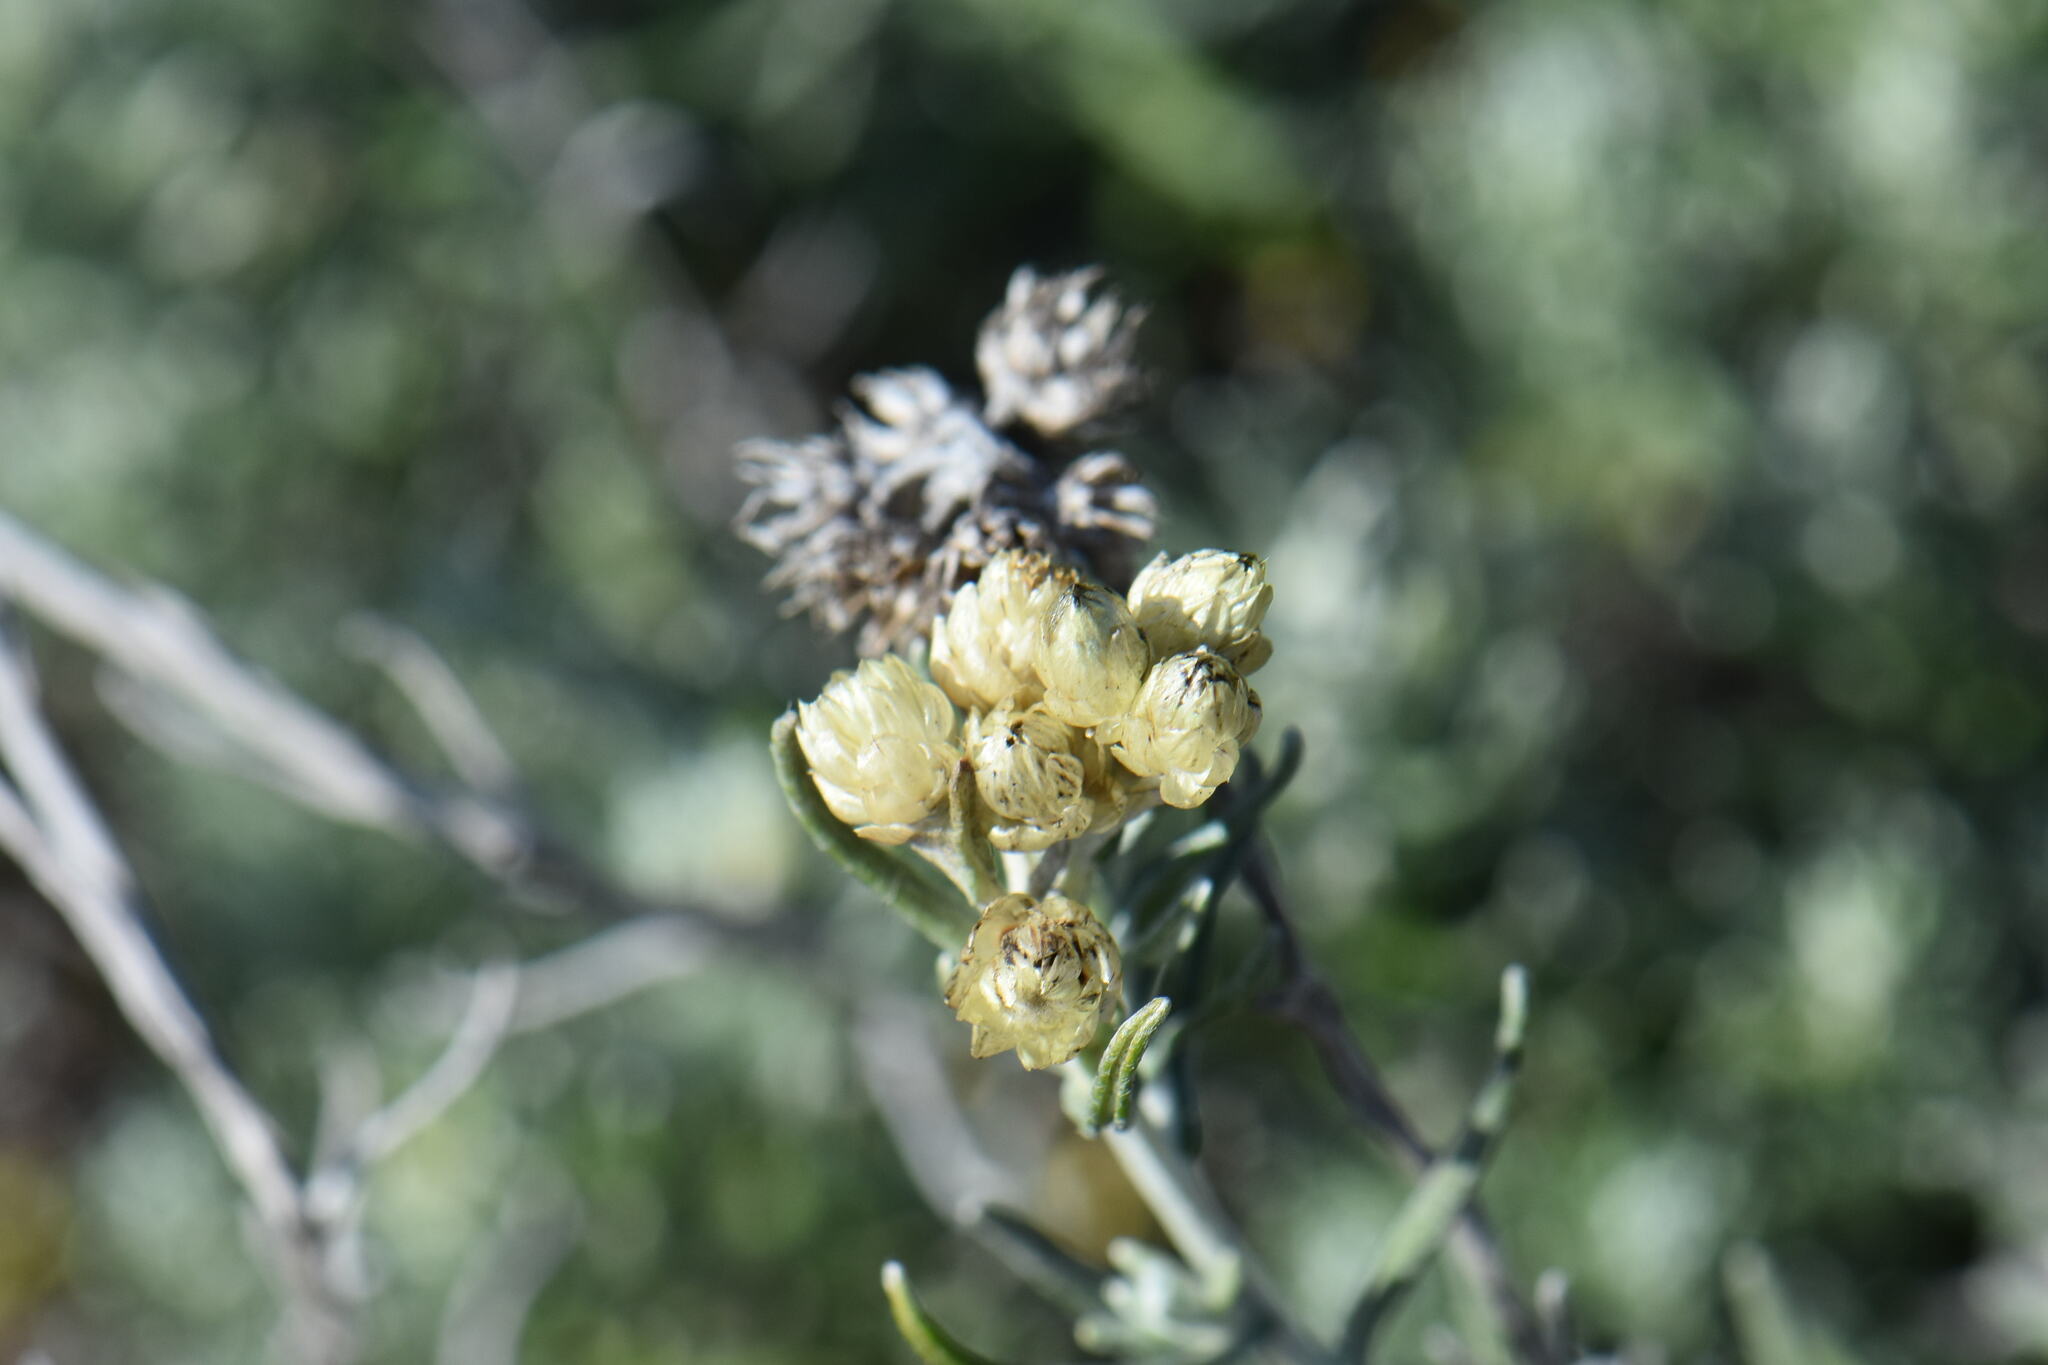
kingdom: Plantae
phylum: Tracheophyta
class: Magnoliopsida
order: Asterales
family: Asteraceae
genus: Helichrysum
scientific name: Helichrysum stoechas
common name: Goldilocks
